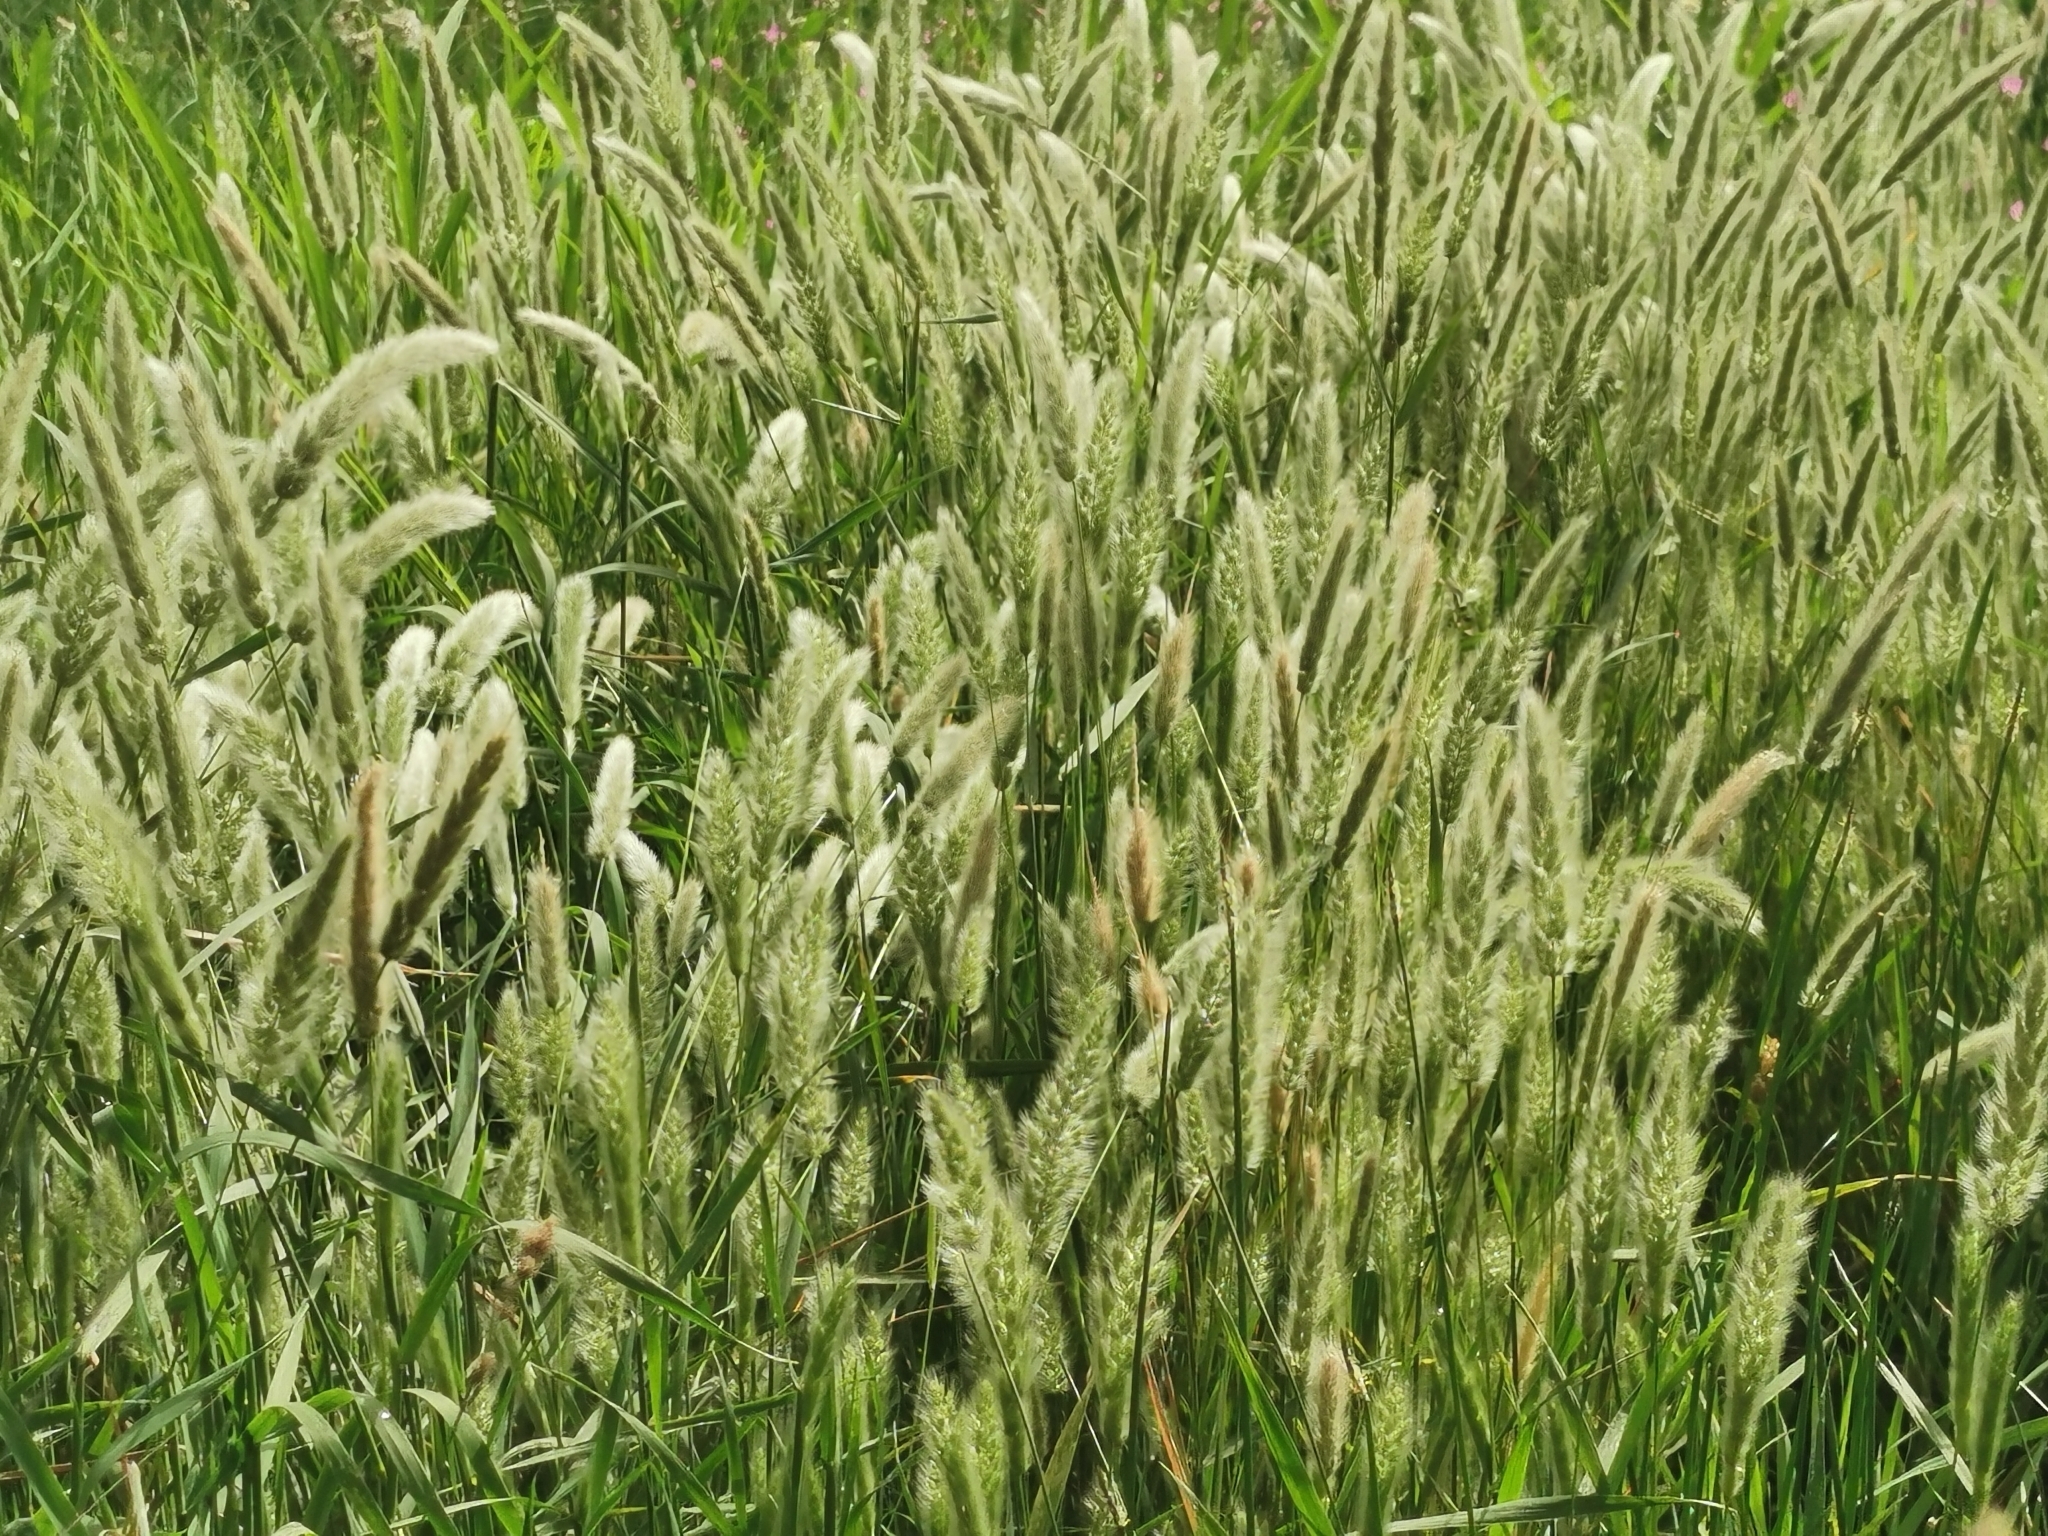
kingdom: Plantae
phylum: Tracheophyta
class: Liliopsida
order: Poales
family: Poaceae
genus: Polypogon
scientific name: Polypogon monspeliensis
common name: Annual rabbitsfoot grass
